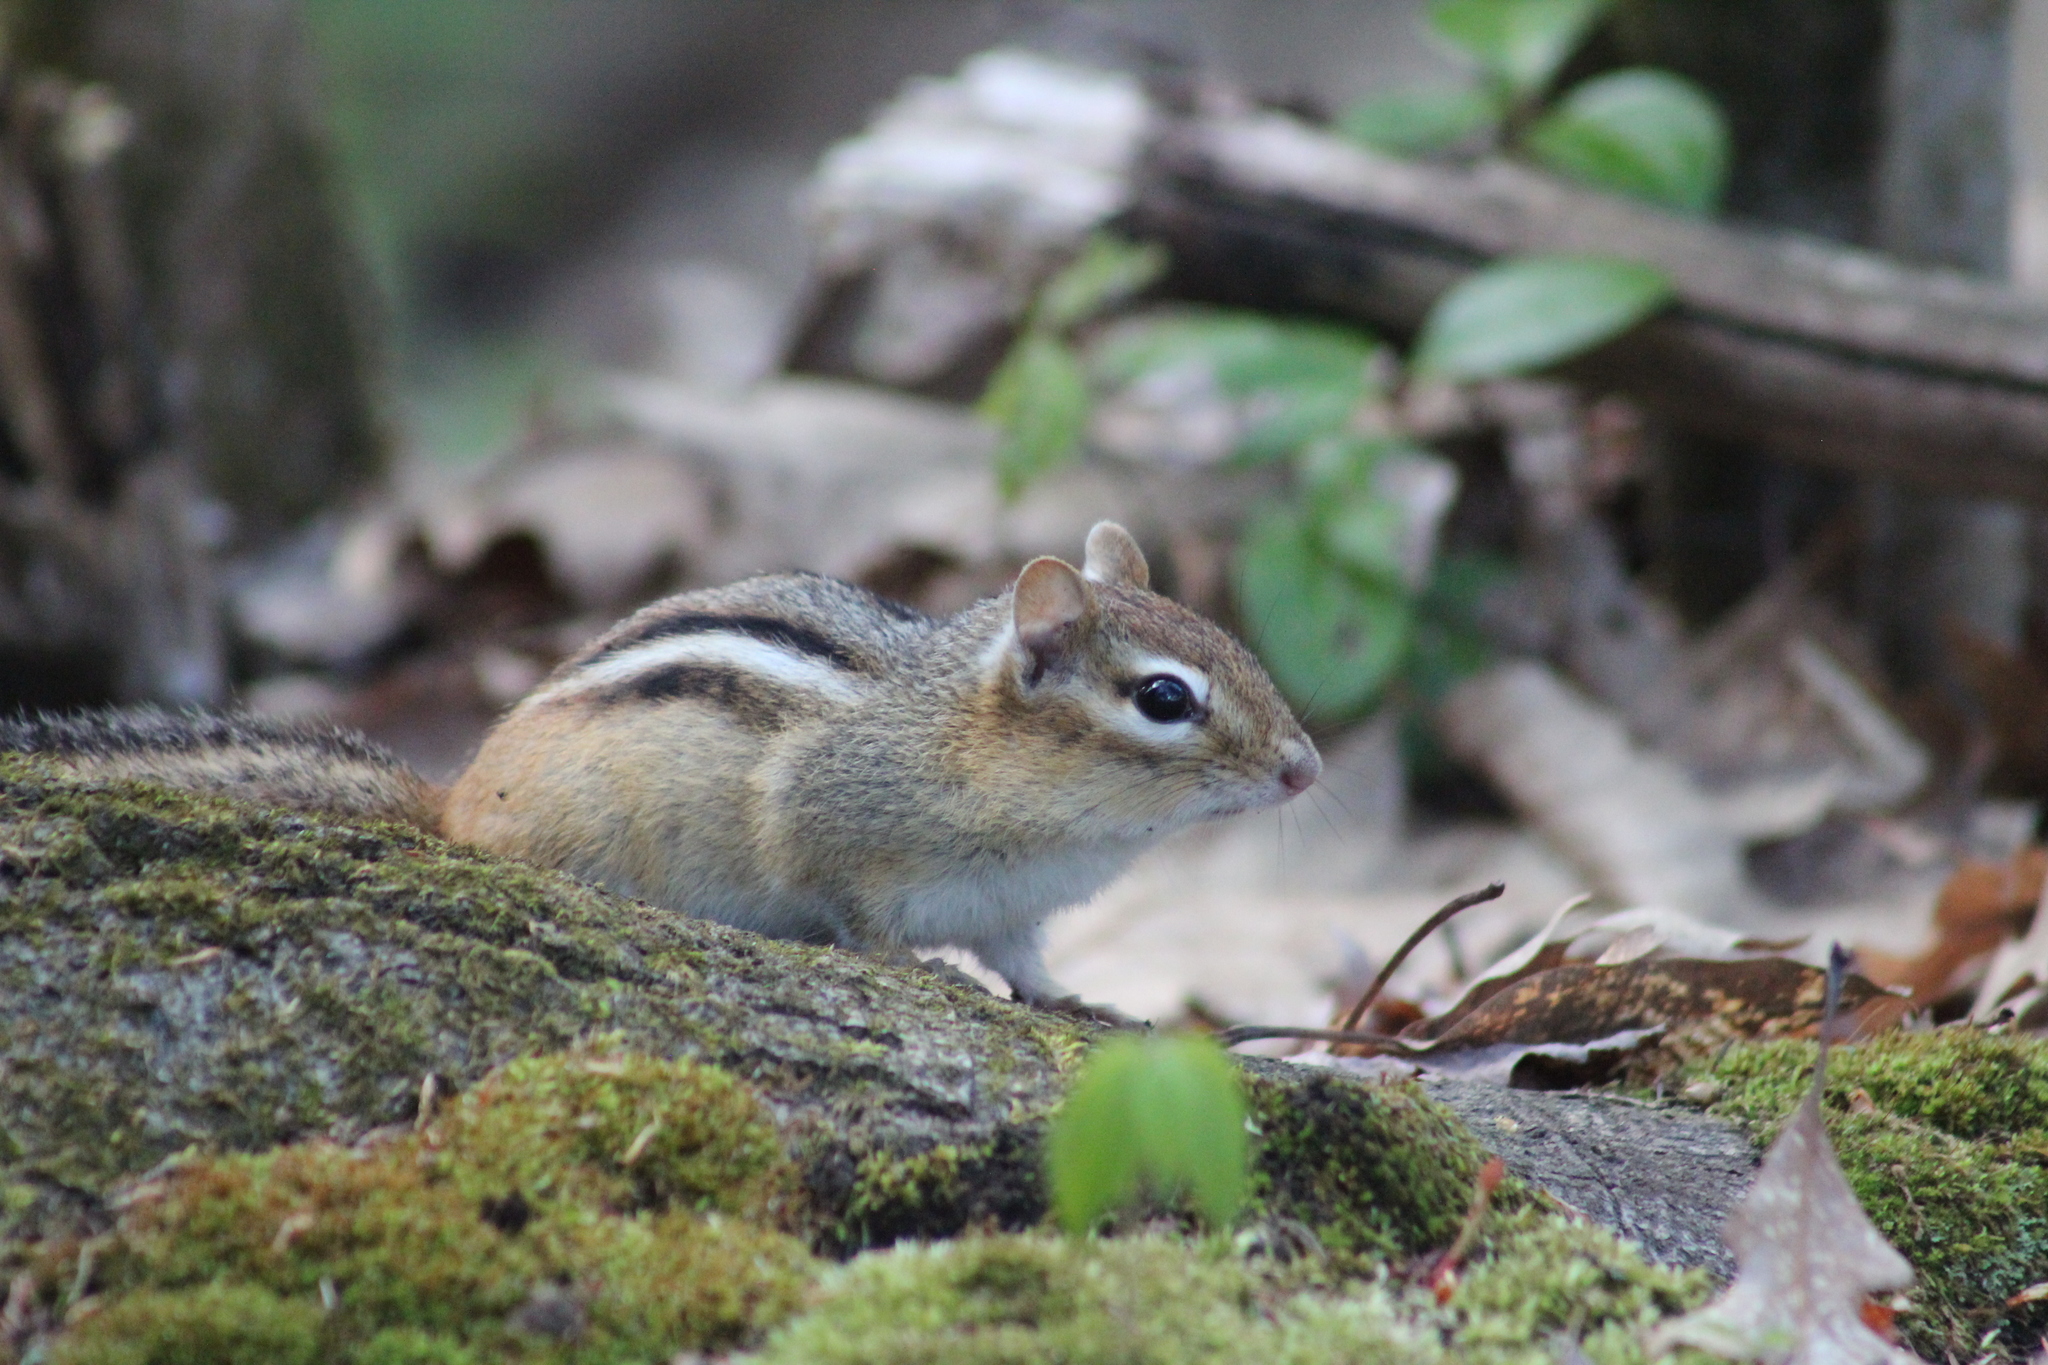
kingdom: Animalia
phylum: Chordata
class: Mammalia
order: Rodentia
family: Sciuridae
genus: Tamias
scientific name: Tamias striatus
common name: Eastern chipmunk
